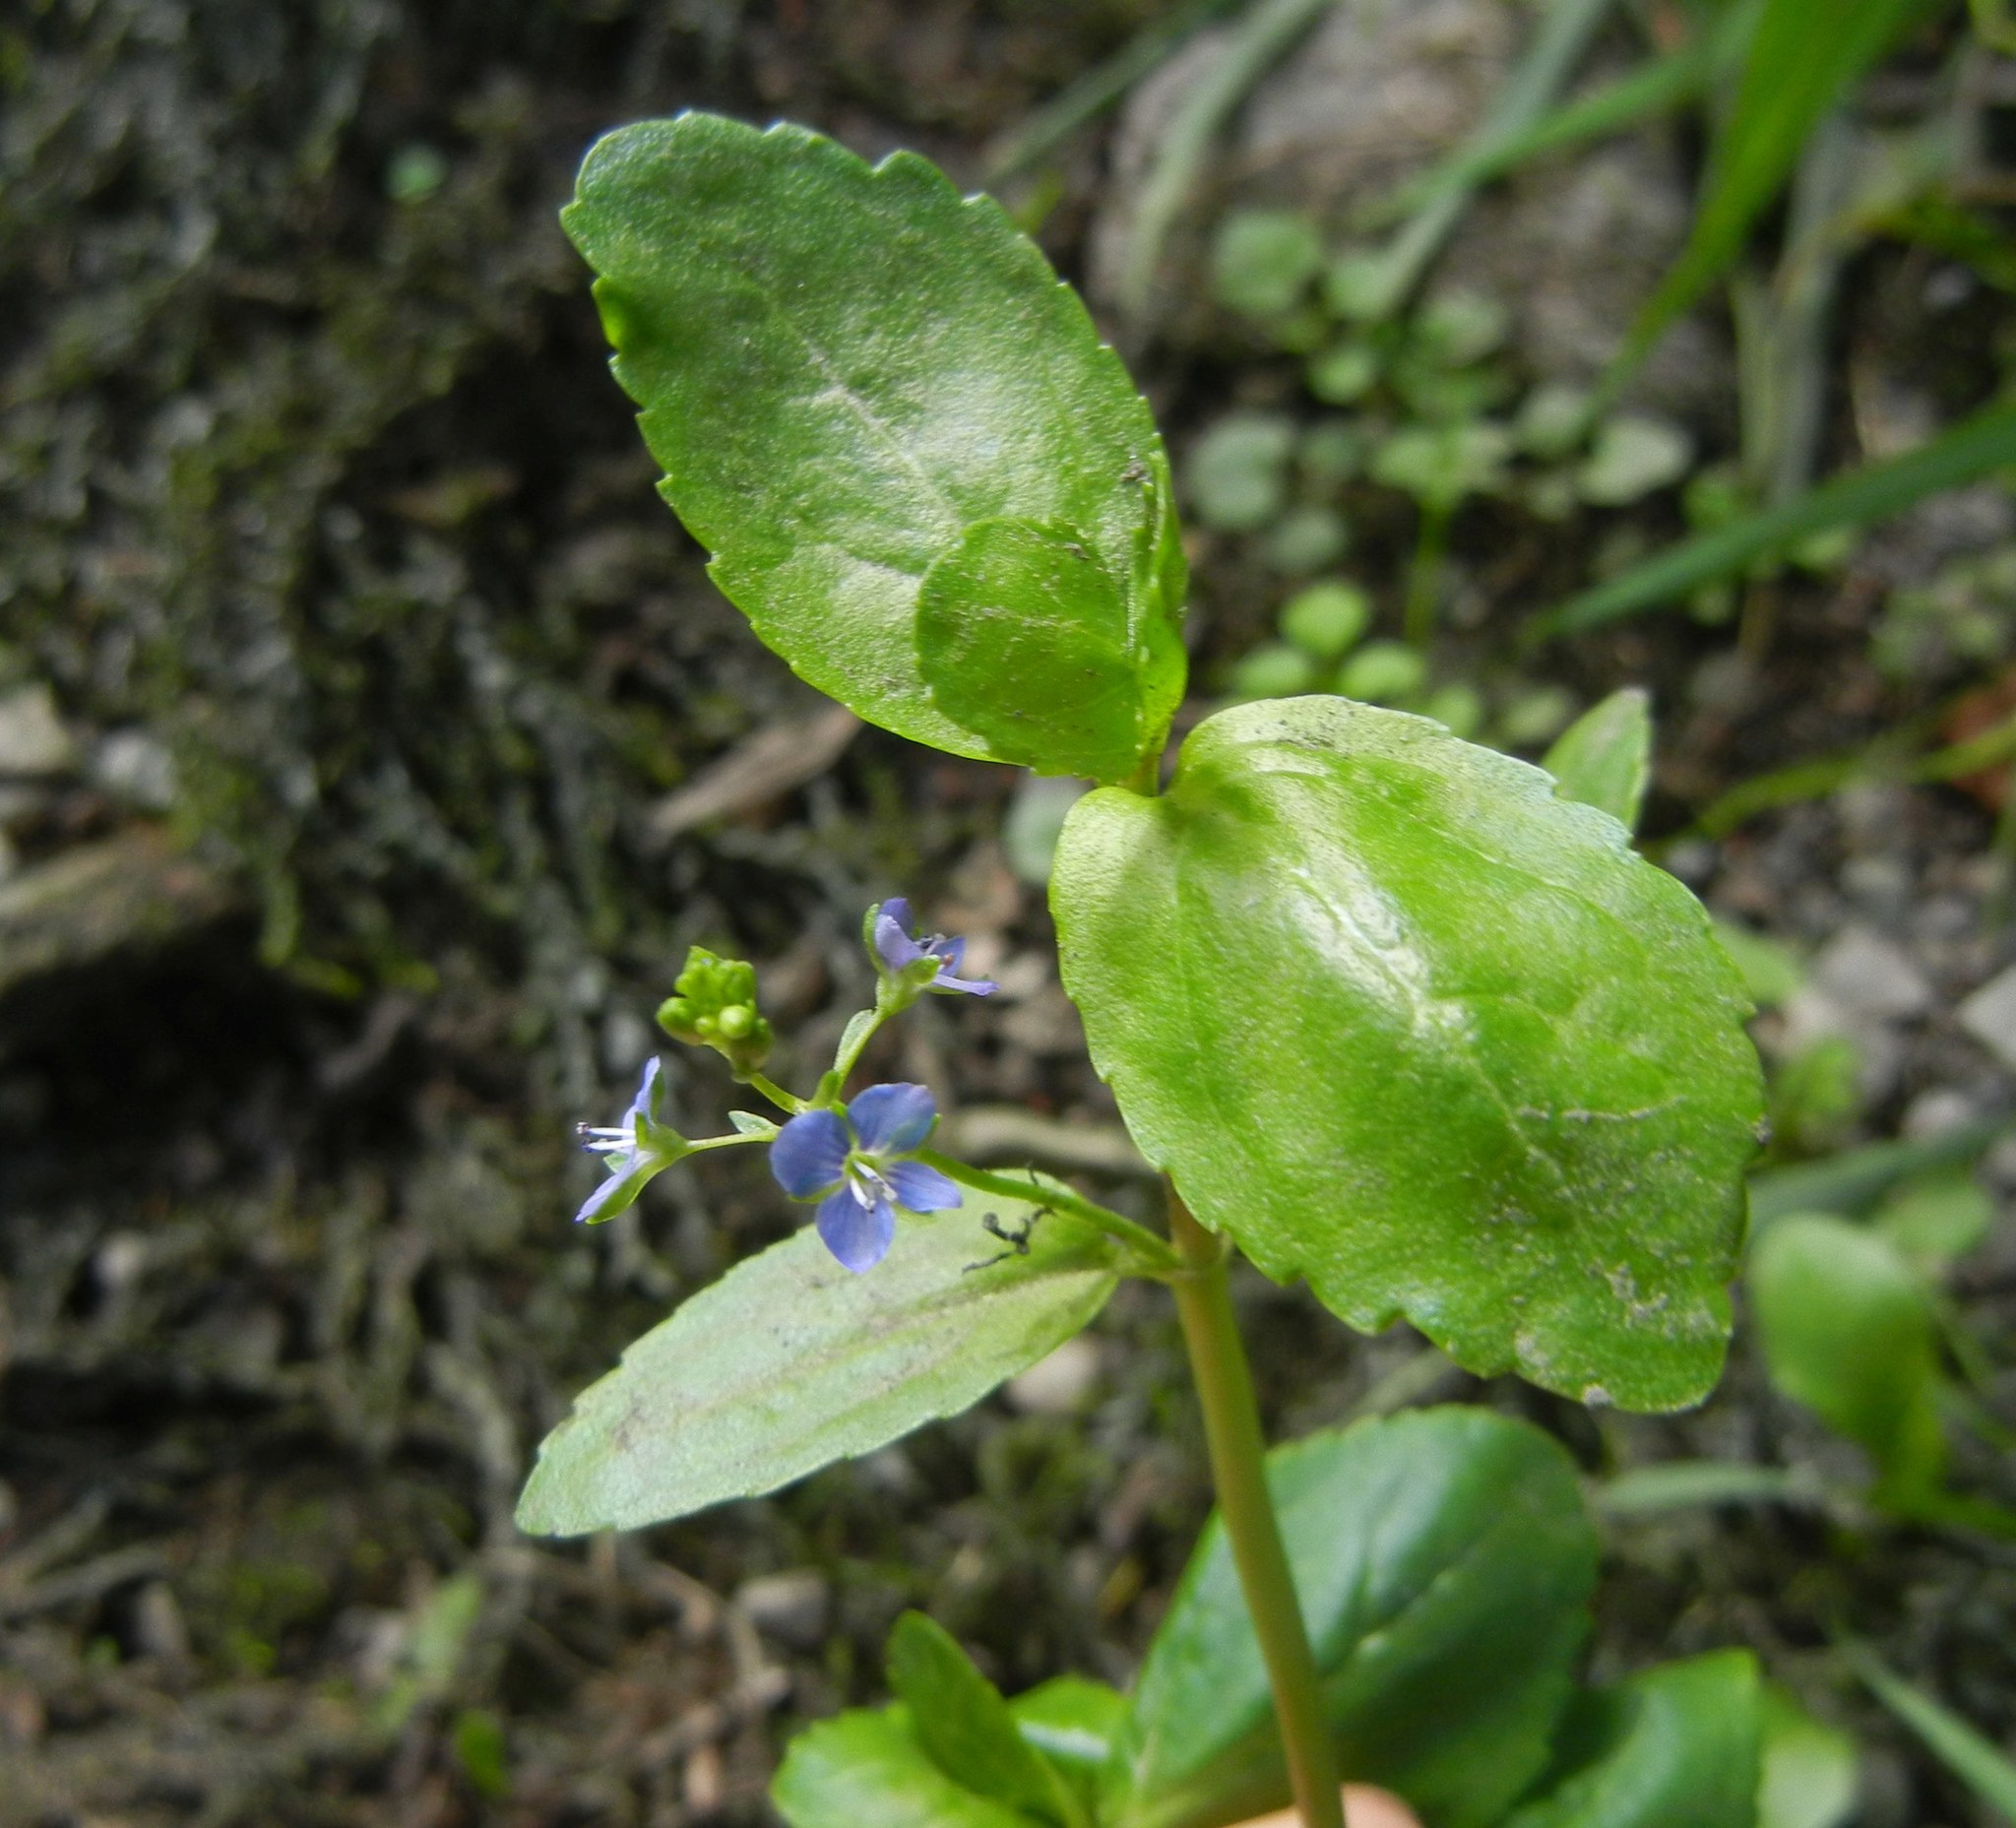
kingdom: Plantae
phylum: Tracheophyta
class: Magnoliopsida
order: Lamiales
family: Plantaginaceae
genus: Veronica
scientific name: Veronica beccabunga
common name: Brooklime
